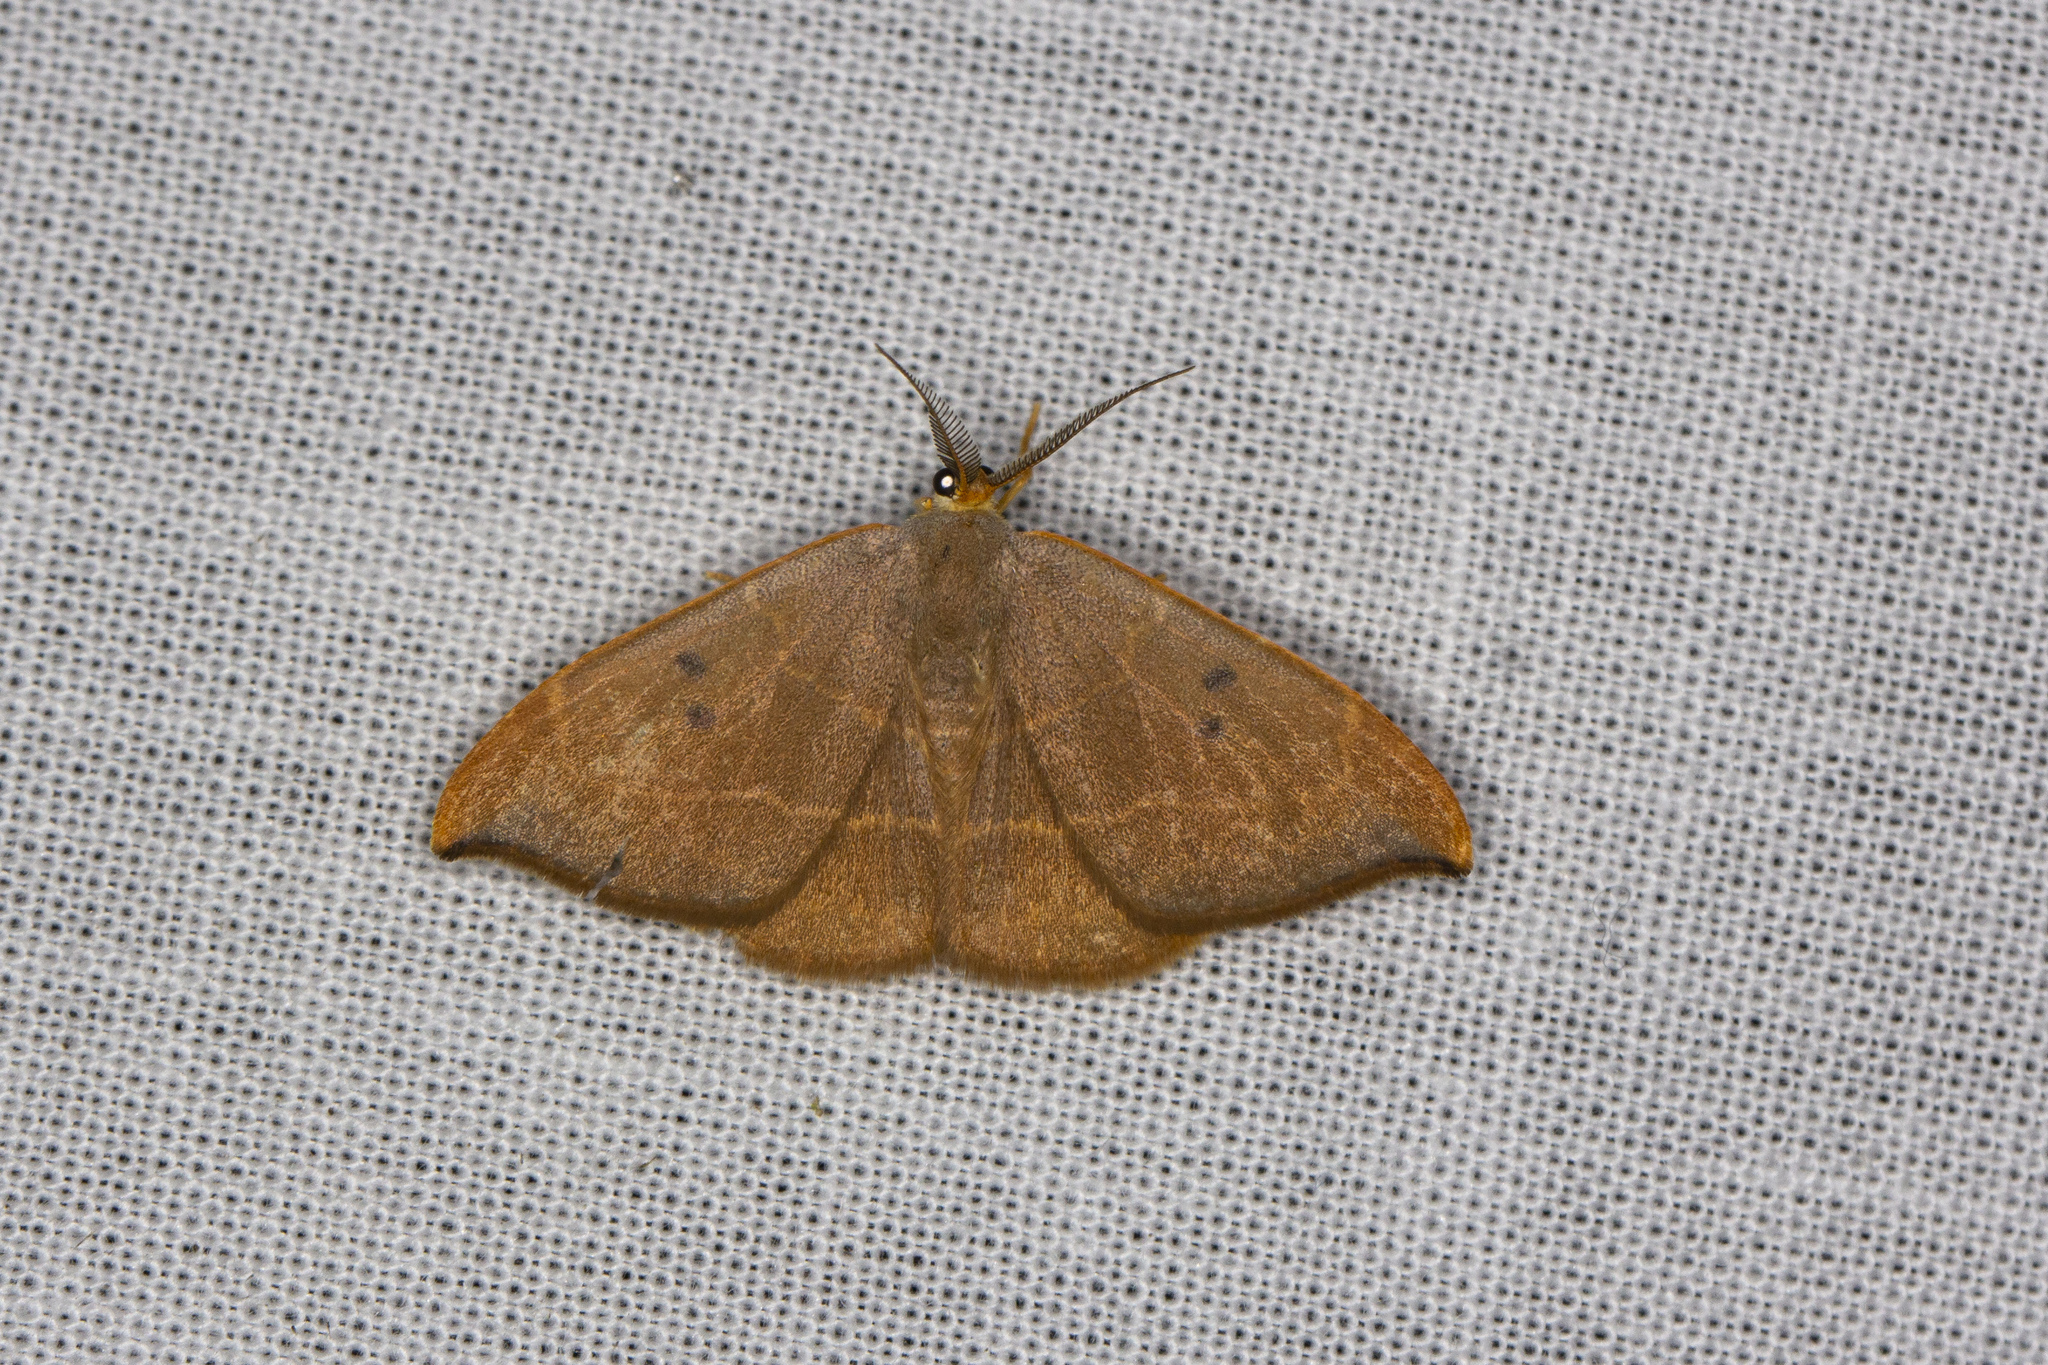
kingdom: Animalia
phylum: Arthropoda
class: Insecta
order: Lepidoptera
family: Drepanidae
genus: Watsonalla
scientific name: Watsonalla binaria
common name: Oak hook-tip
